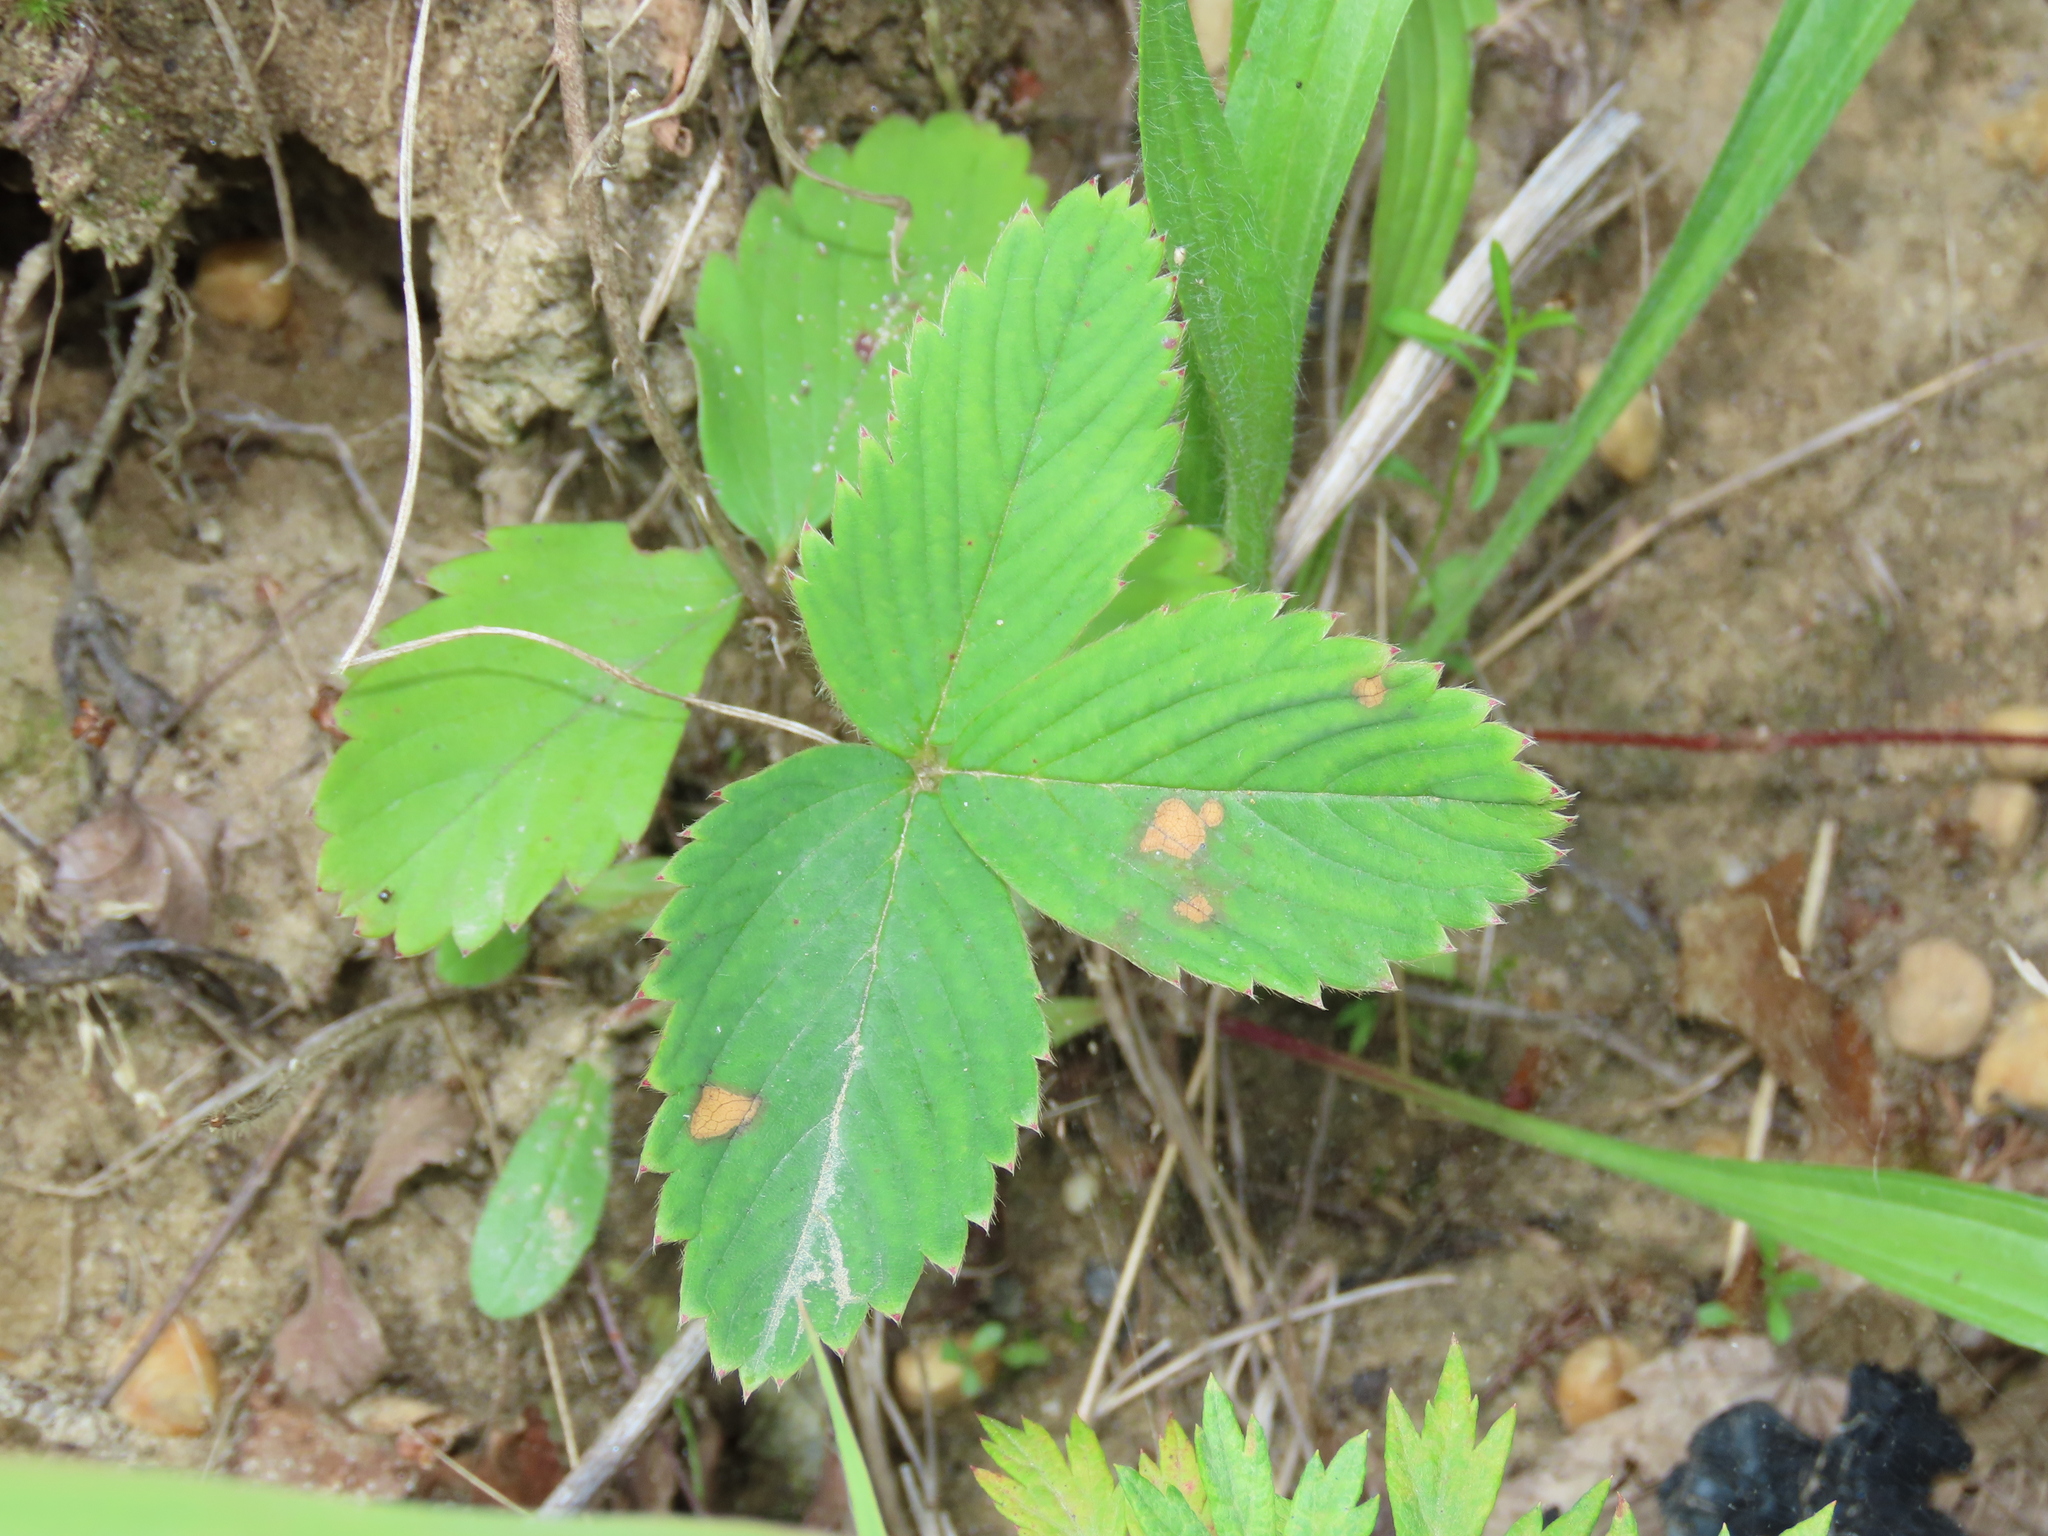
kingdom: Plantae
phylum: Tracheophyta
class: Magnoliopsida
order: Rosales
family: Rosaceae
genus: Fragaria
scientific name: Fragaria virginiana
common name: Thickleaved wild strawberry
